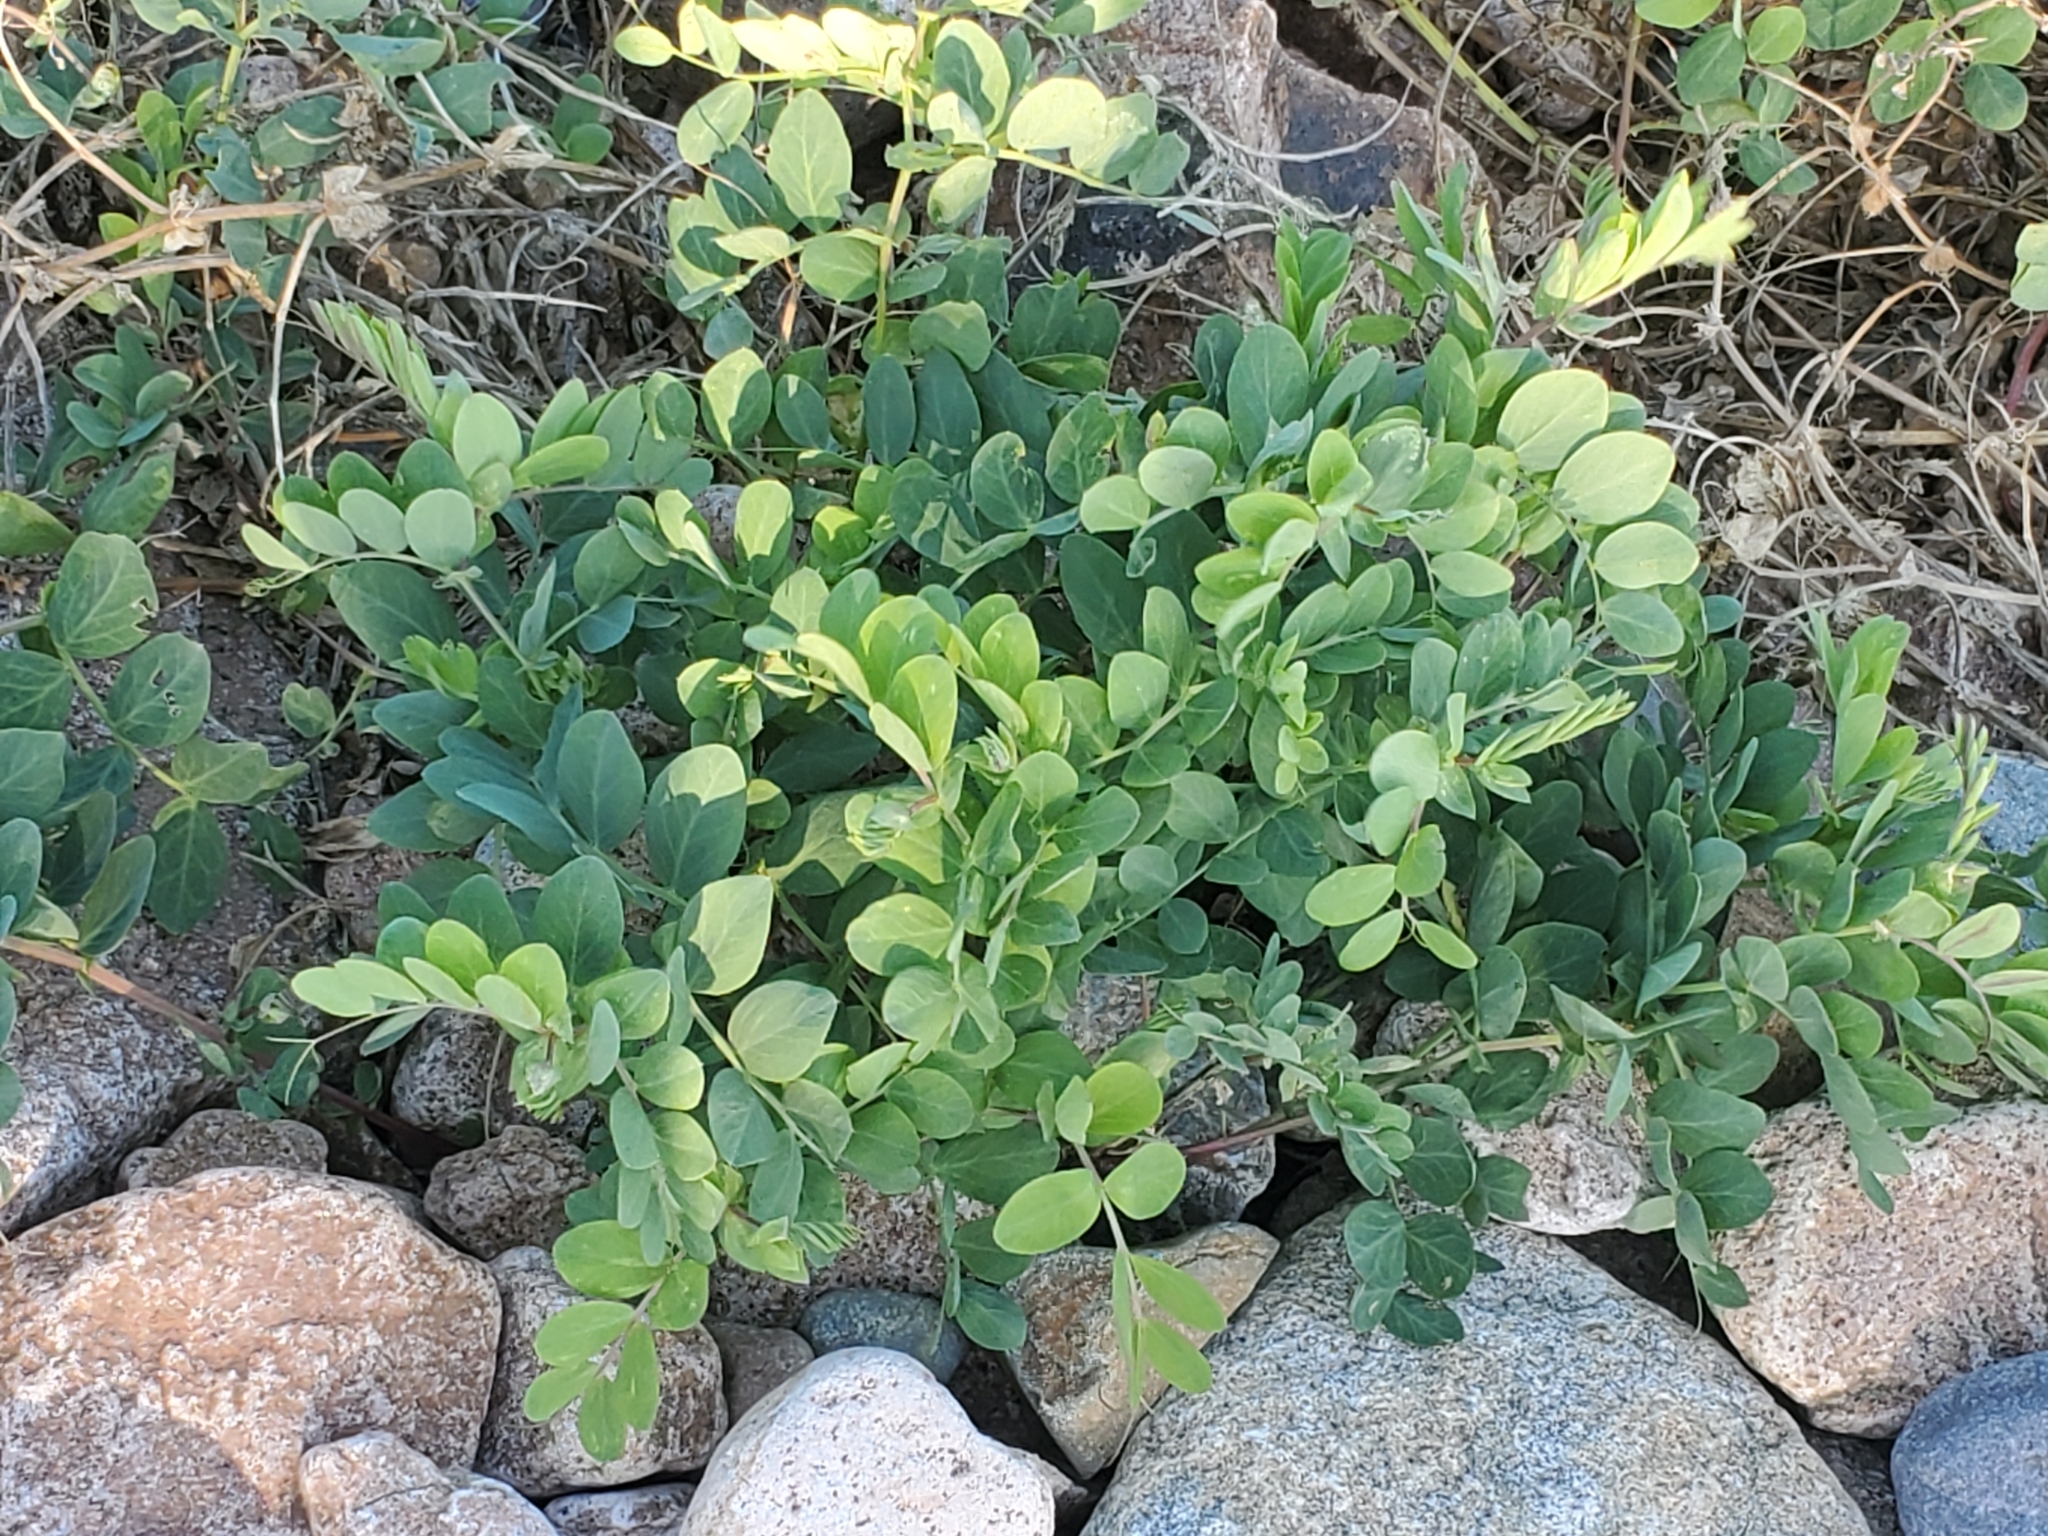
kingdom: Plantae
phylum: Tracheophyta
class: Magnoliopsida
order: Fabales
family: Fabaceae
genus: Lathyrus
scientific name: Lathyrus japonicus
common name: Sea pea
